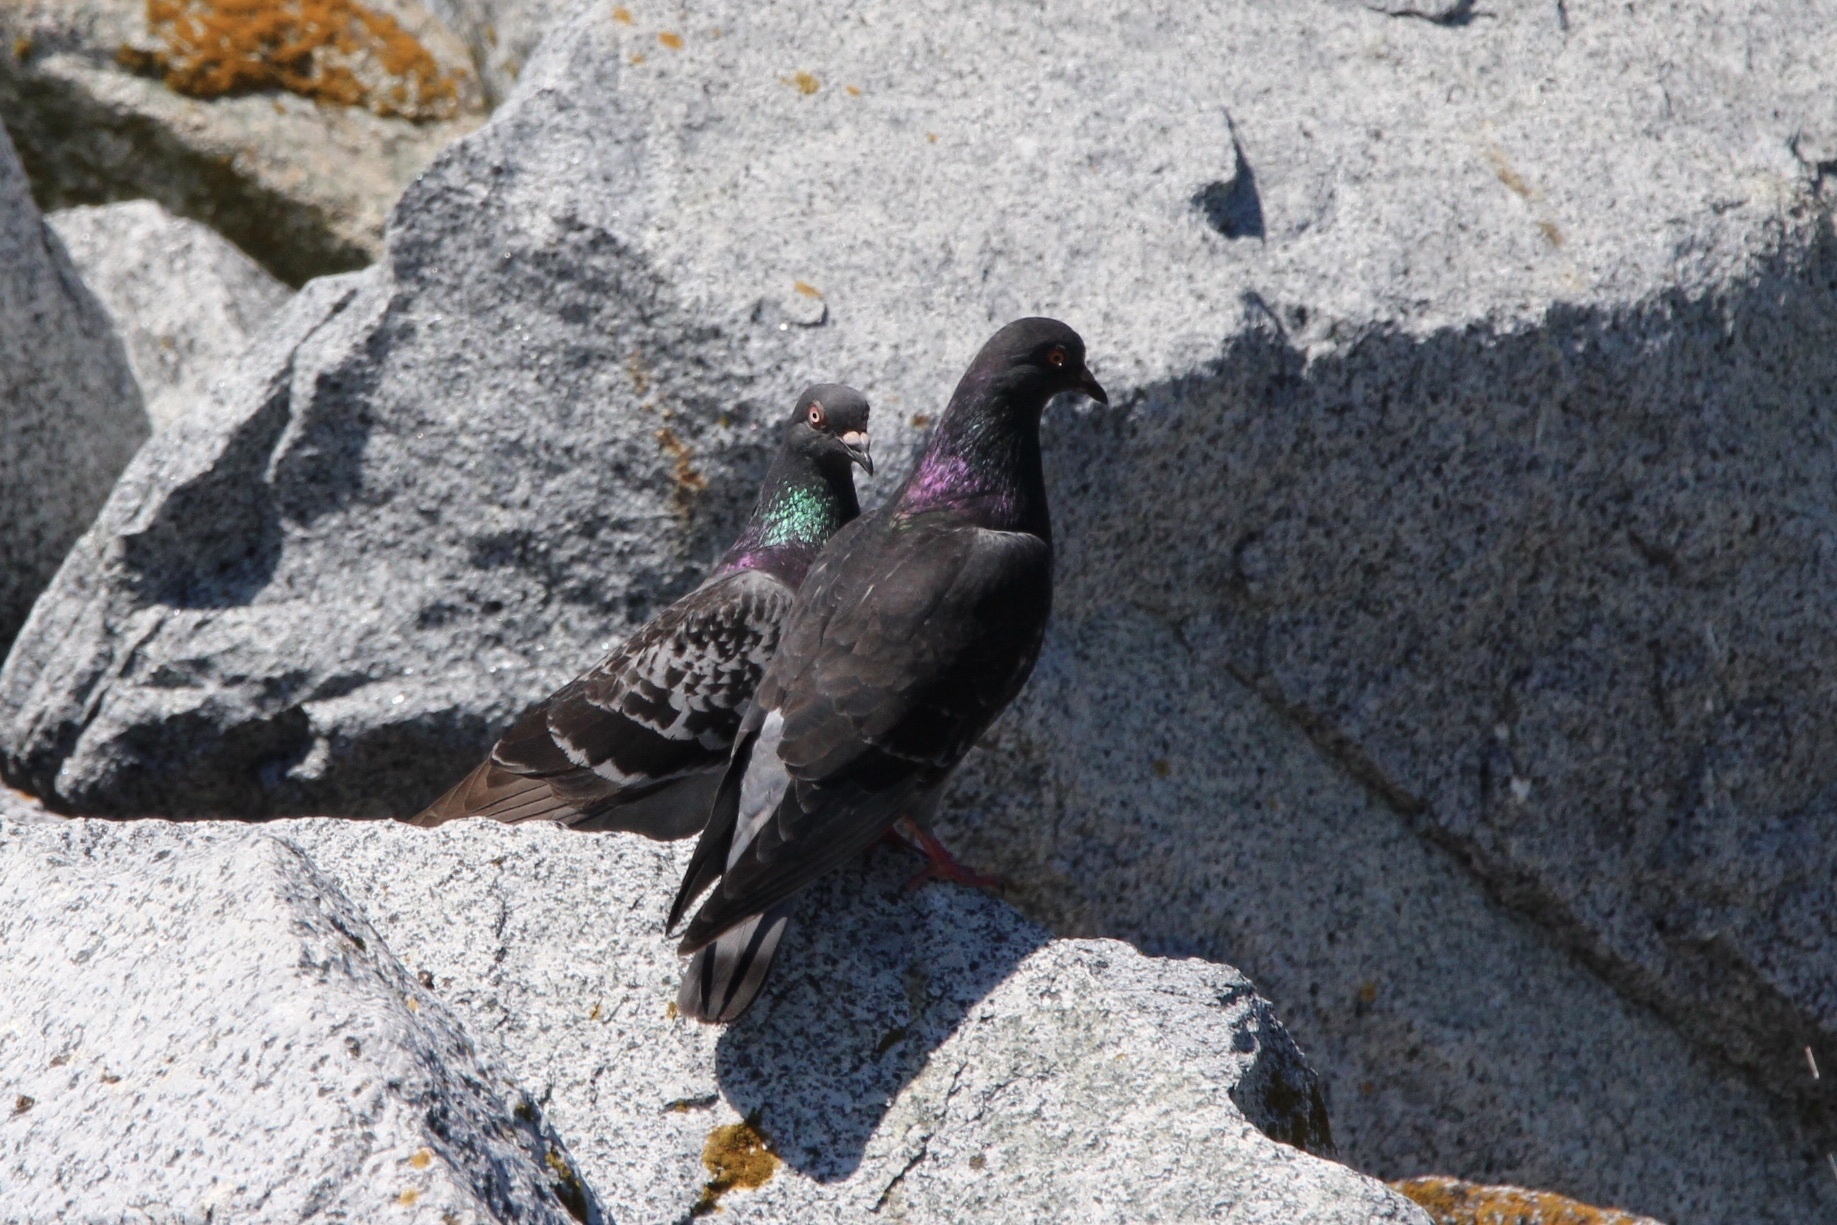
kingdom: Animalia
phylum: Chordata
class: Aves
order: Columbiformes
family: Columbidae
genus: Columba
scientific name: Columba livia
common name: Rock pigeon
